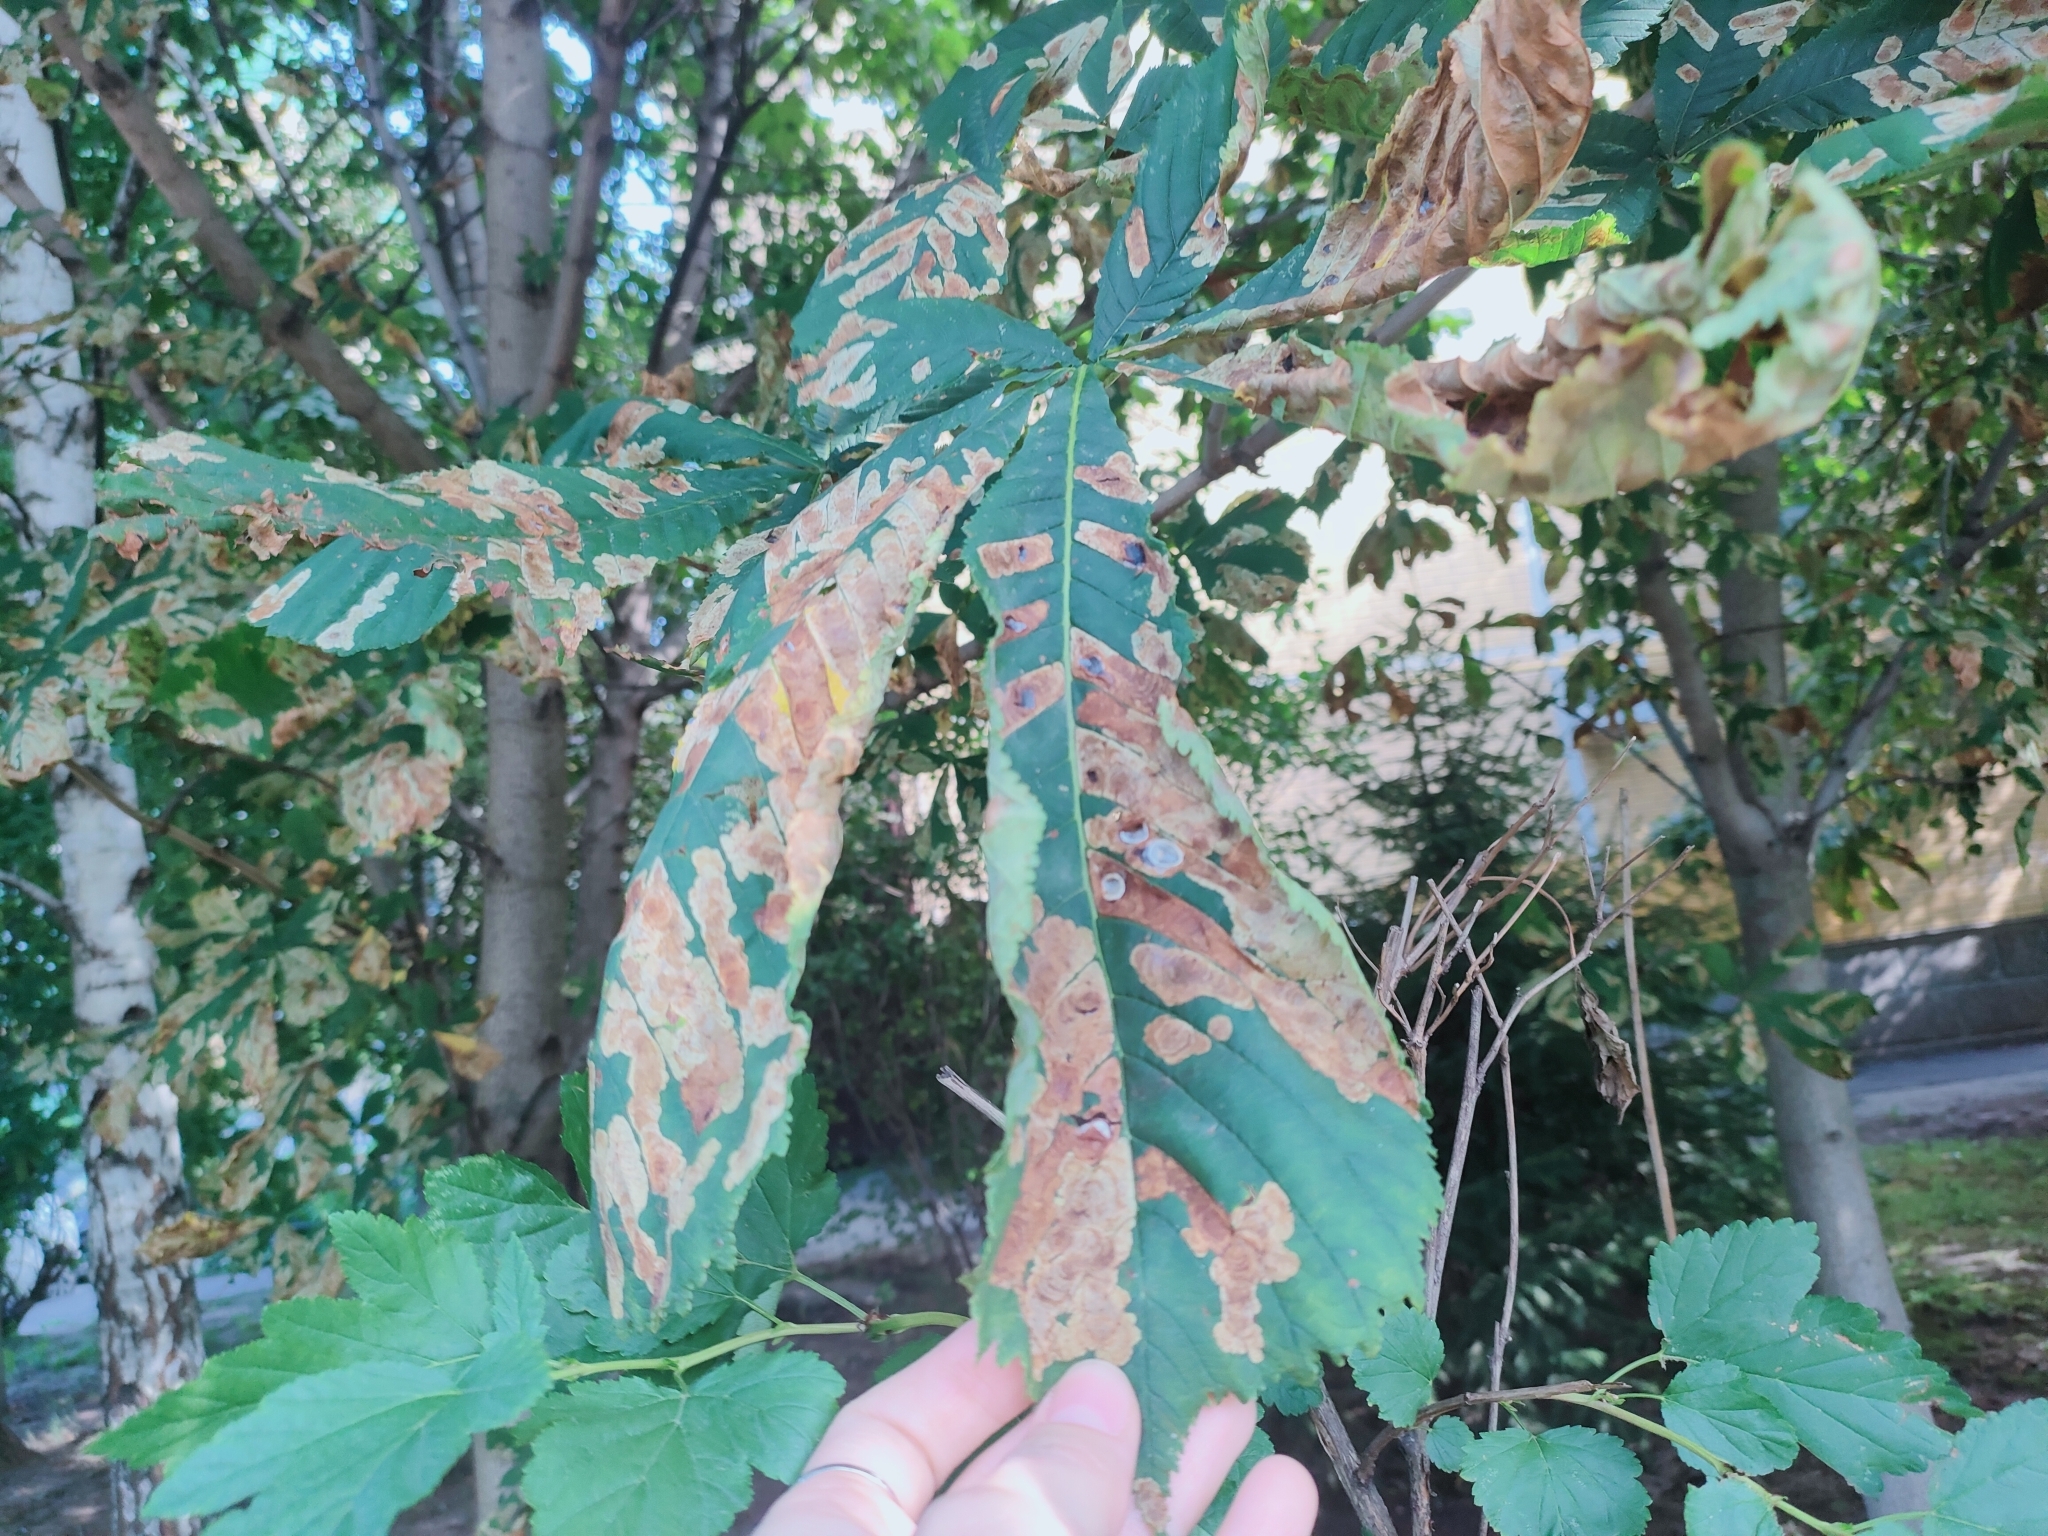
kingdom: Animalia
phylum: Arthropoda
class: Insecta
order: Lepidoptera
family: Gracillariidae
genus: Cameraria
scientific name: Cameraria ohridella
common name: Horse-chestnut leaf-miner
